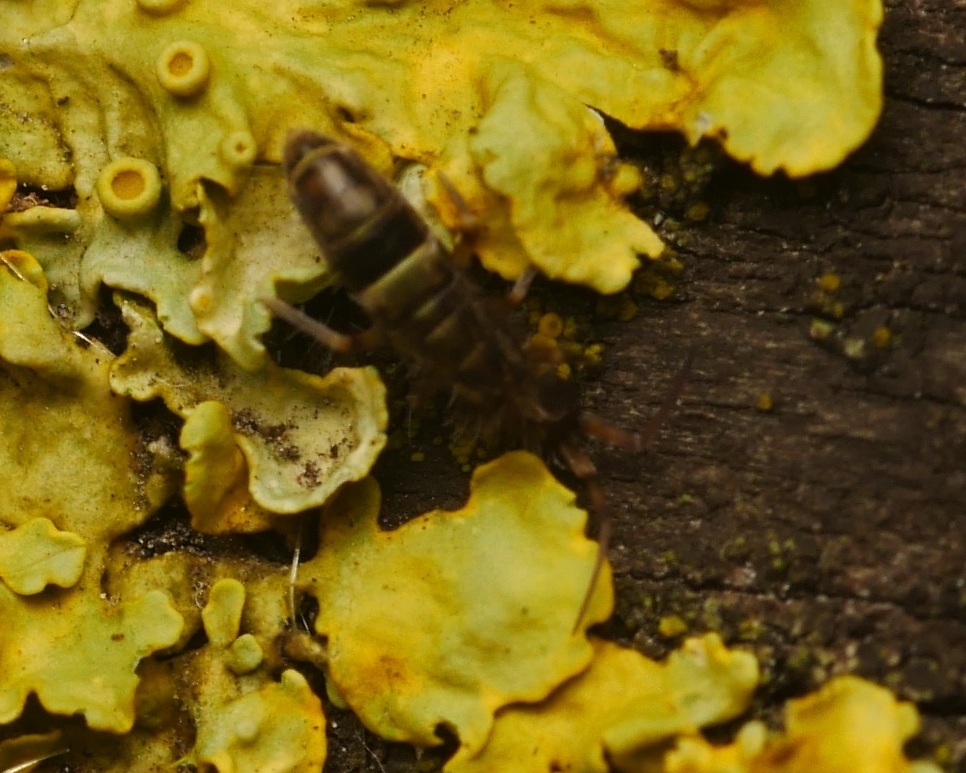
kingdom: Animalia
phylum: Arthropoda
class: Collembola
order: Entomobryomorpha
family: Orchesellidae
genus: Orchesella
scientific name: Orchesella cincta
